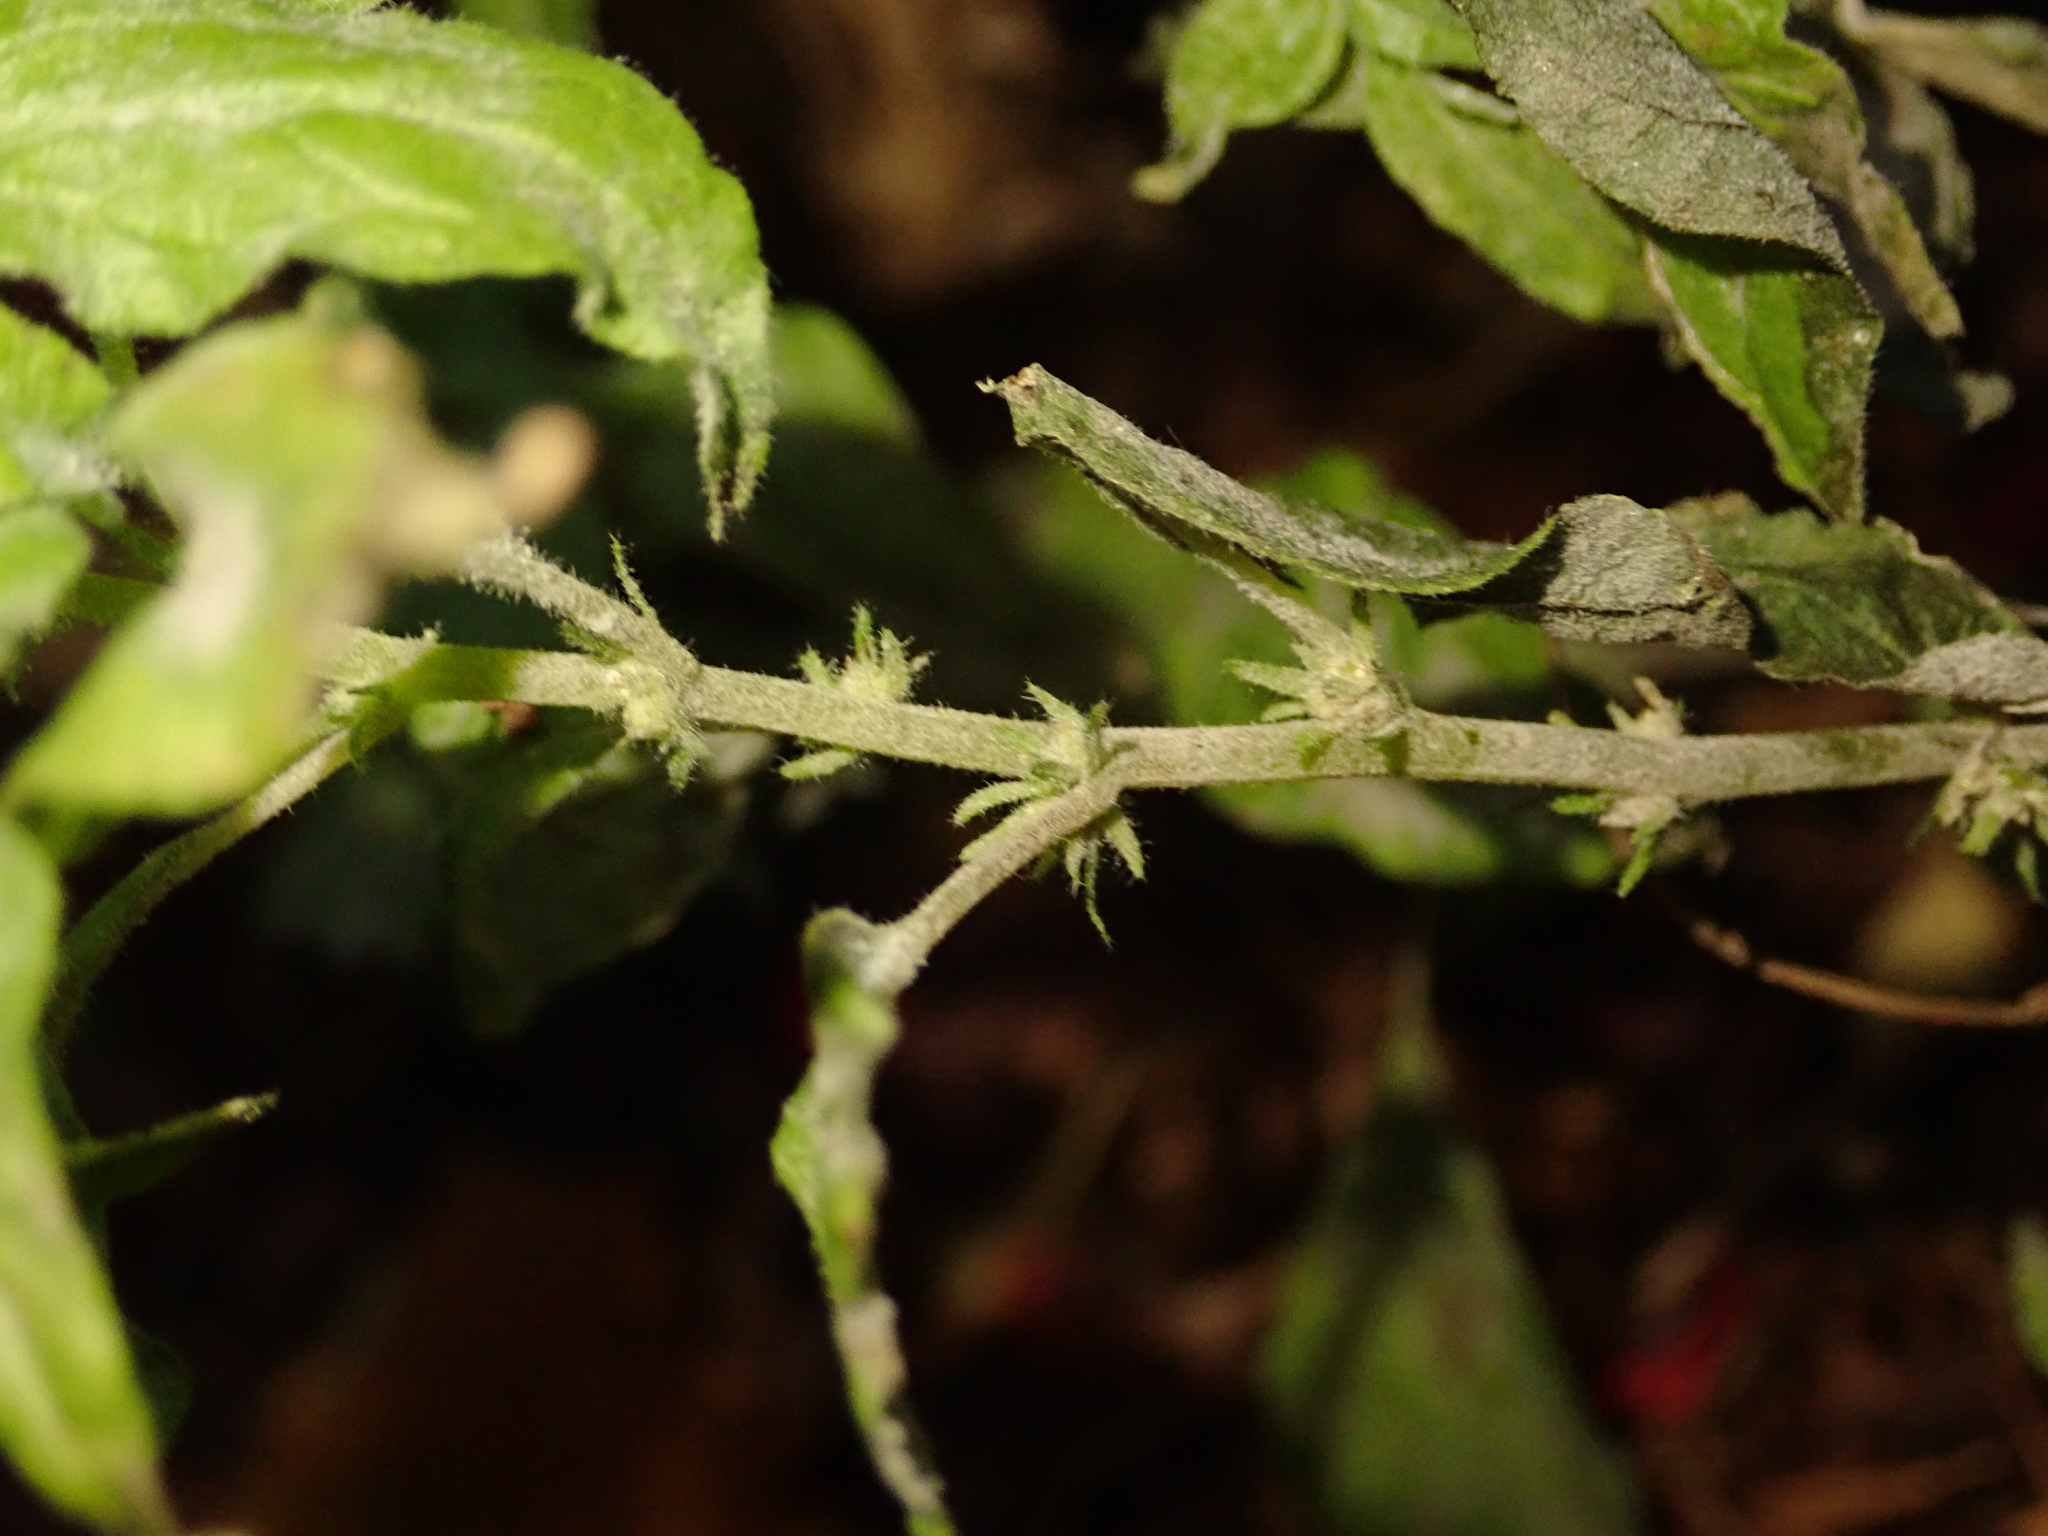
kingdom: Plantae
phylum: Tracheophyta
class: Magnoliopsida
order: Rosales
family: Urticaceae
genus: Parietaria
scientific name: Parietaria pensylvanica
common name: Pennsylvania pellitory
